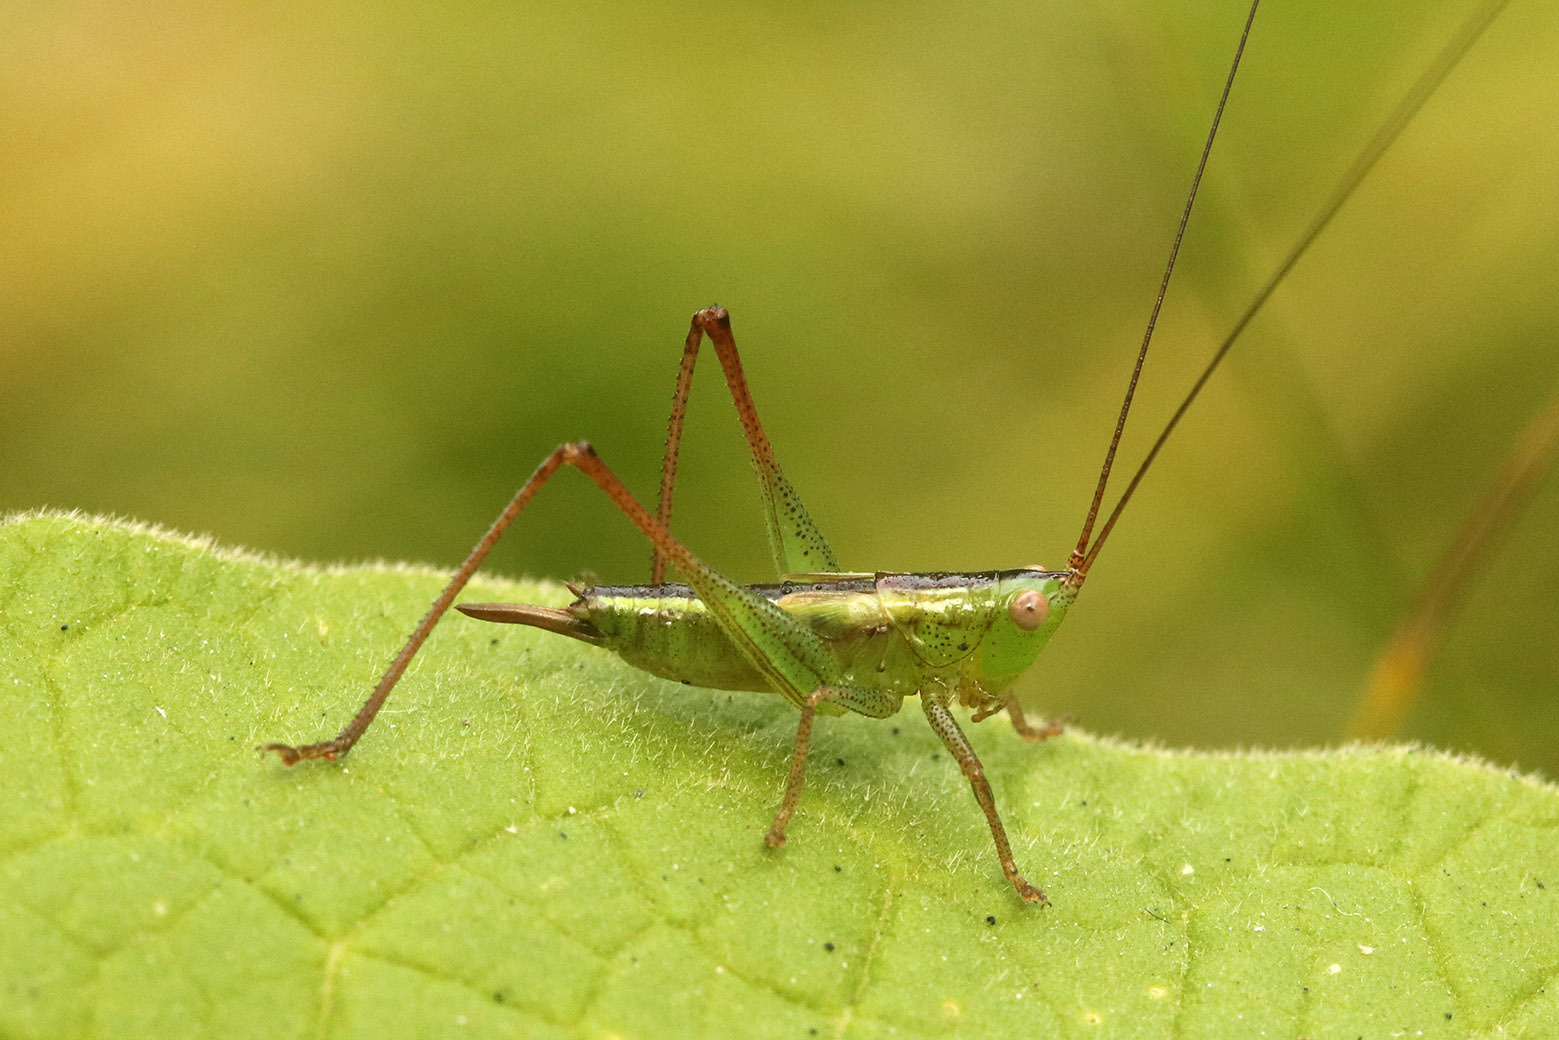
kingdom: Animalia
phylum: Arthropoda
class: Insecta
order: Orthoptera
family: Tettigoniidae
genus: Conocephalus
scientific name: Conocephalus longipes
